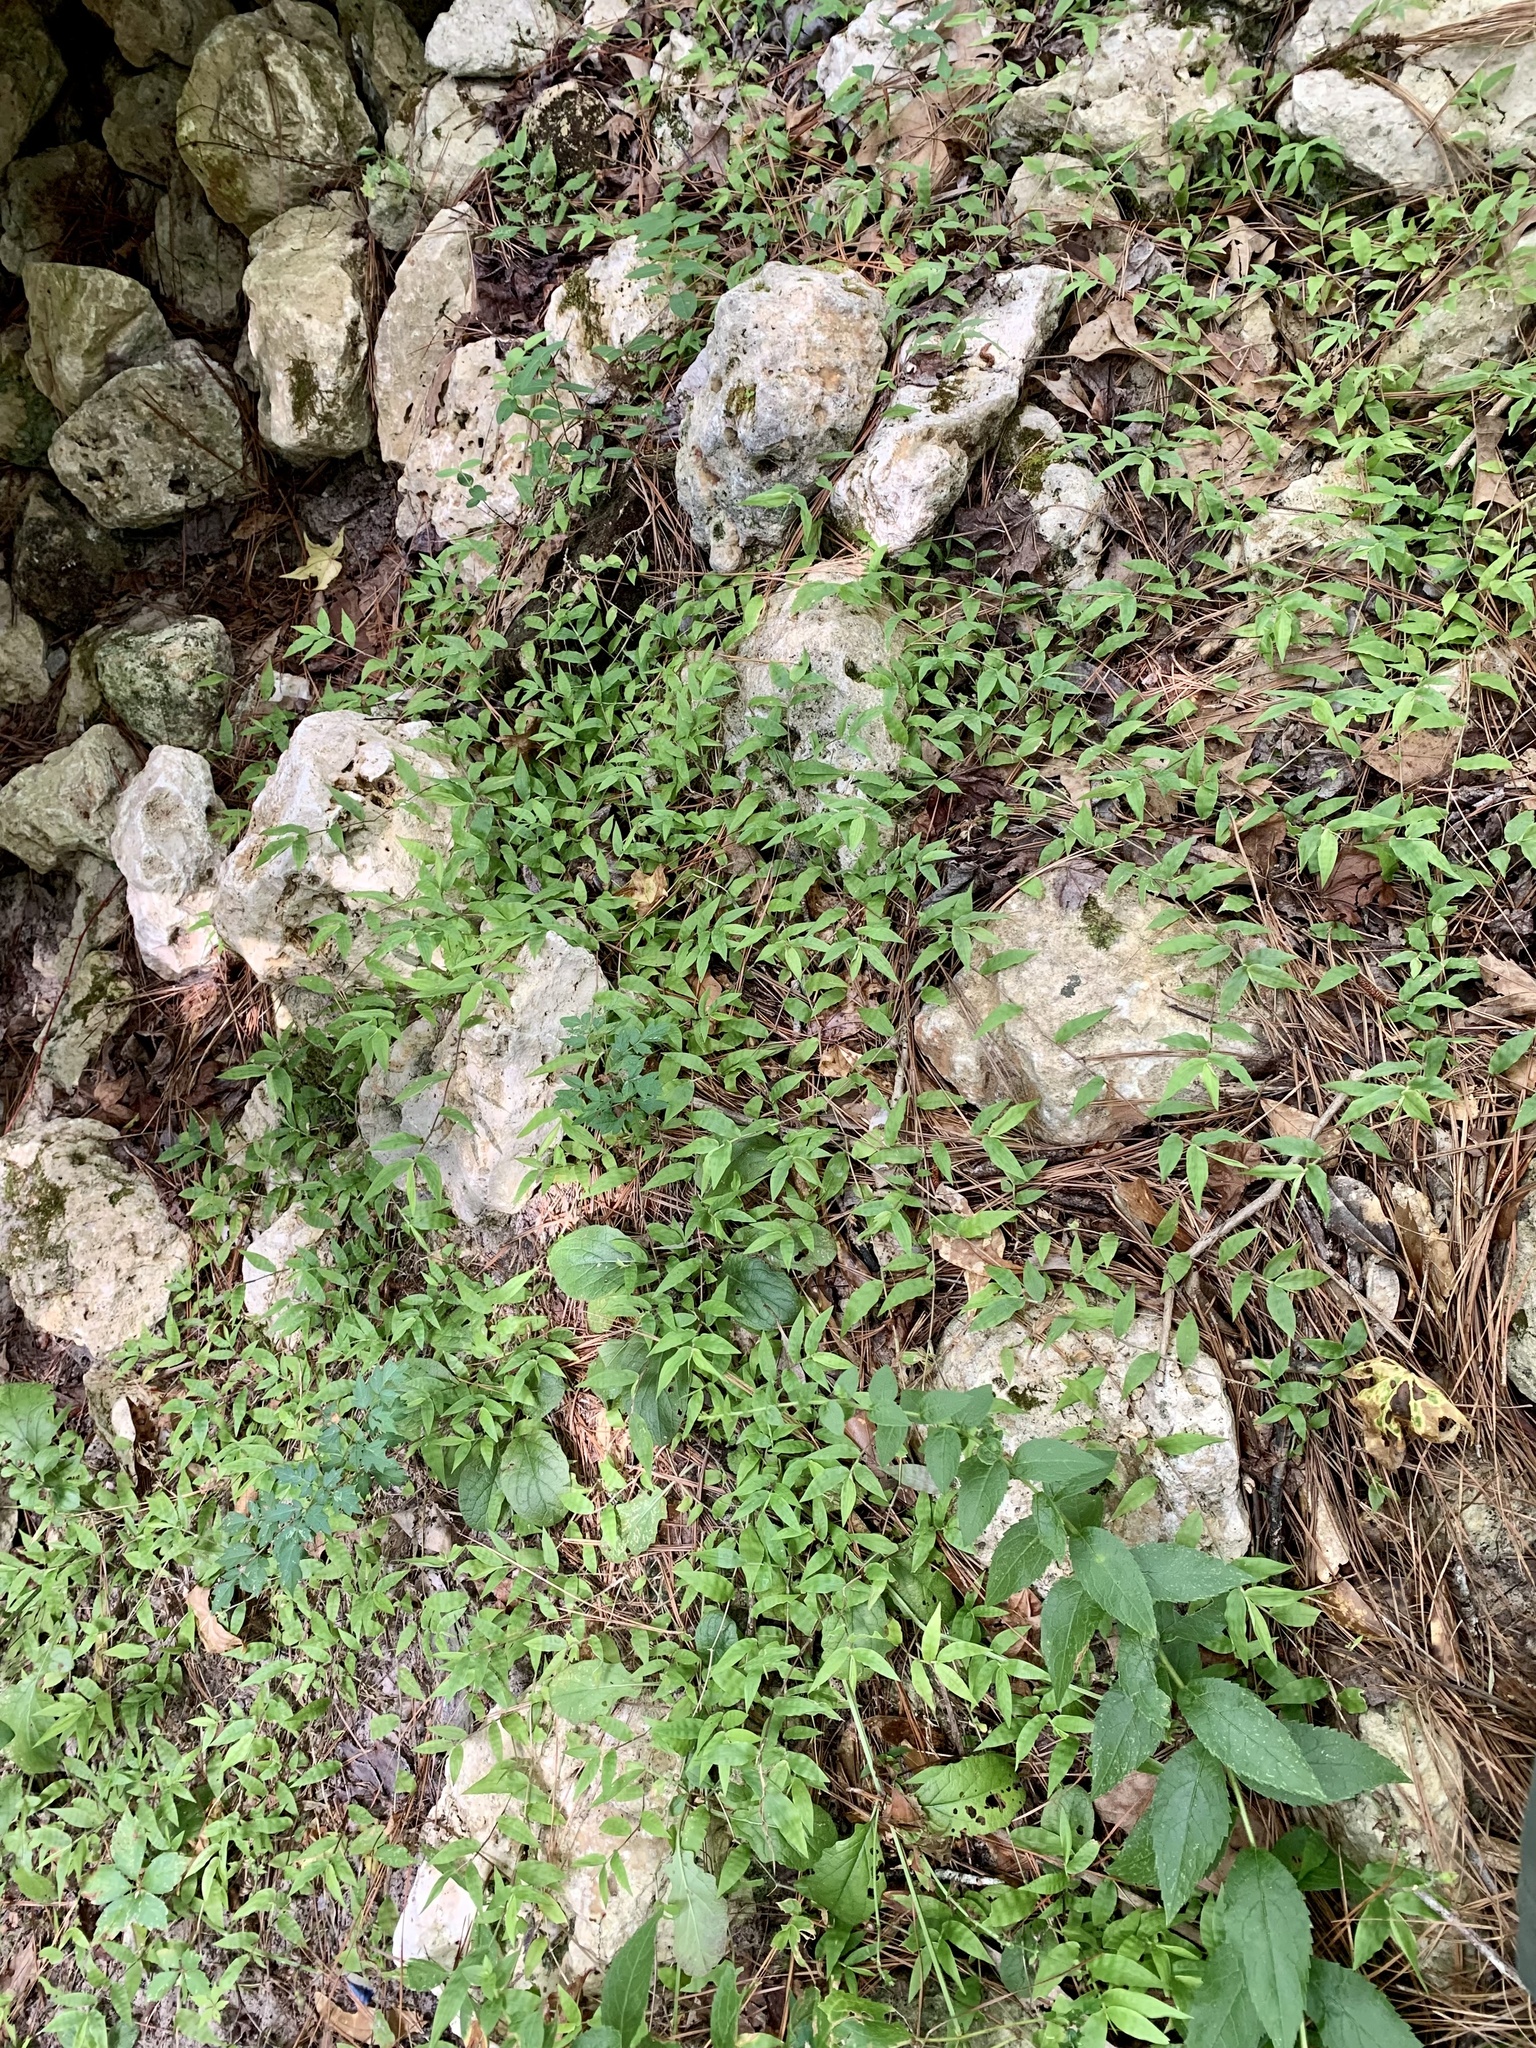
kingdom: Plantae
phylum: Tracheophyta
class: Liliopsida
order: Poales
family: Poaceae
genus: Oplismenus
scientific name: Oplismenus hirtellus
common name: Basketgrass
